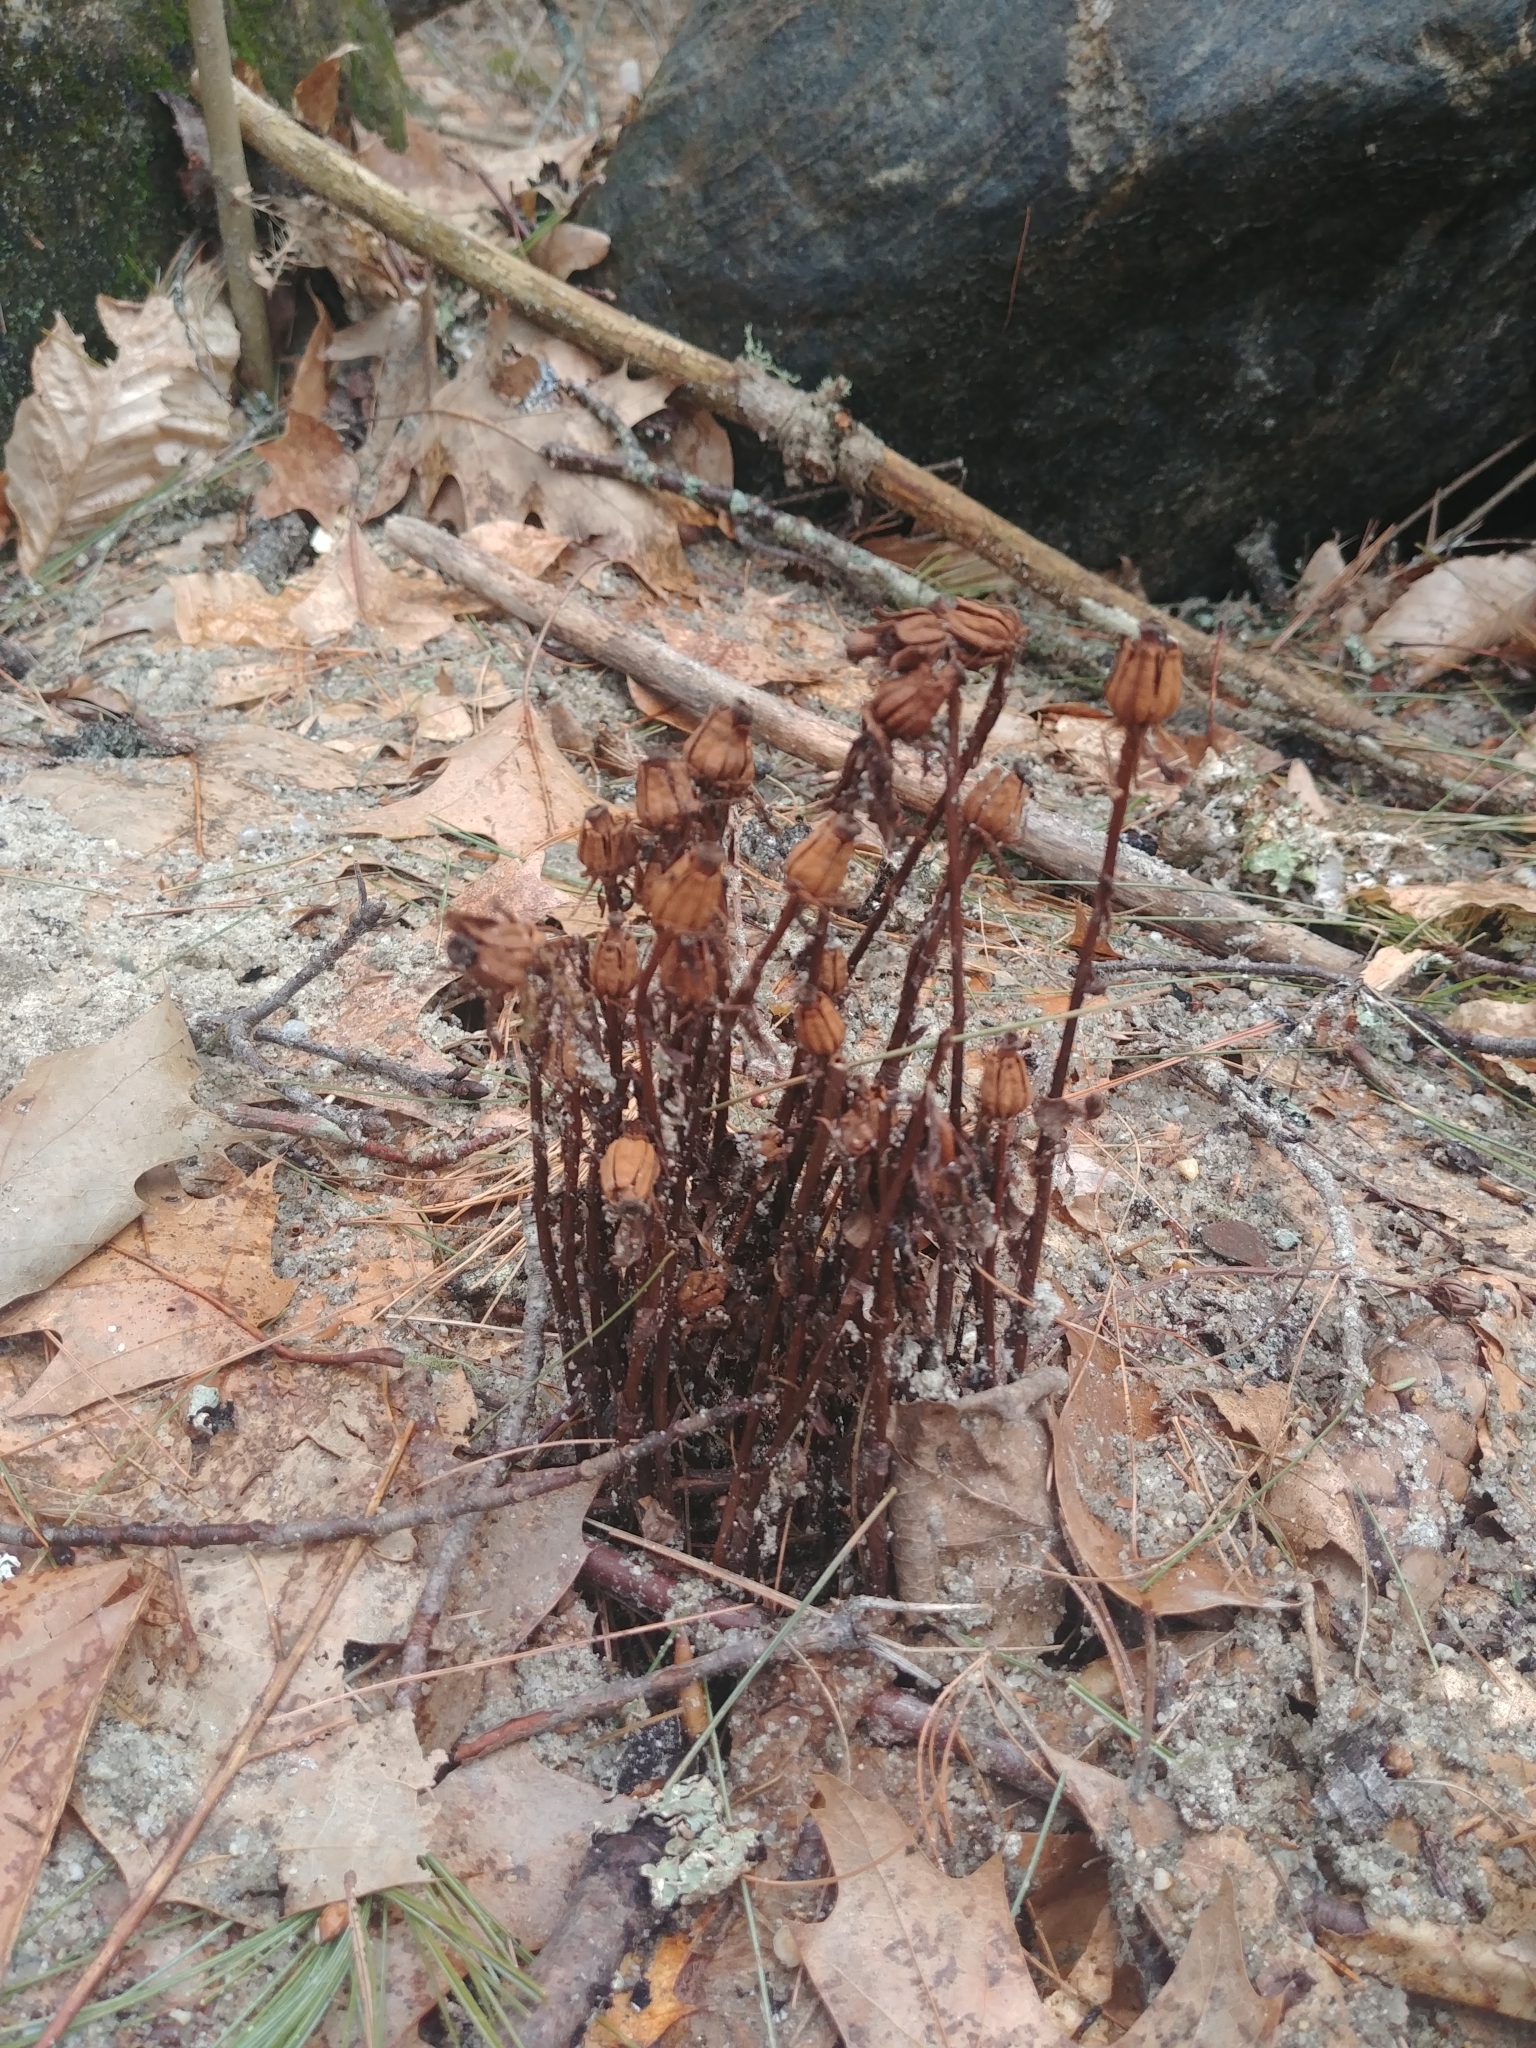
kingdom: Plantae
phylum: Tracheophyta
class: Magnoliopsida
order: Ericales
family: Ericaceae
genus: Monotropa
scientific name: Monotropa uniflora
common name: Convulsion root
